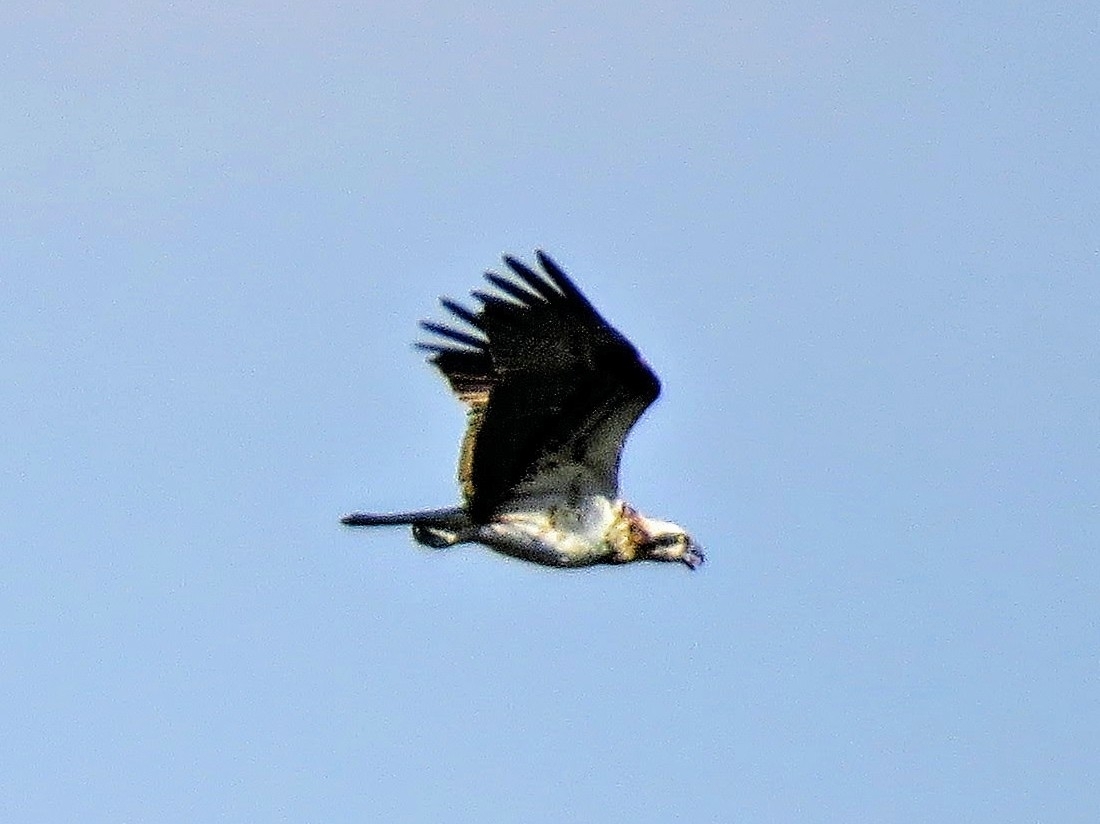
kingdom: Animalia
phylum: Chordata
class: Aves
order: Accipitriformes
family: Pandionidae
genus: Pandion
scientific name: Pandion haliaetus
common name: Osprey
